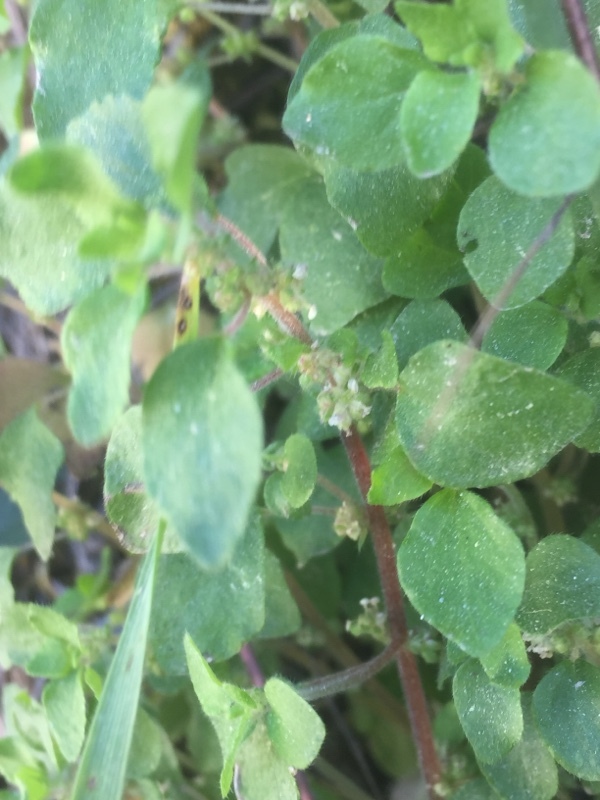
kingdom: Plantae
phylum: Tracheophyta
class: Magnoliopsida
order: Rosales
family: Urticaceae
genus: Parietaria
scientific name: Parietaria lusitanica
